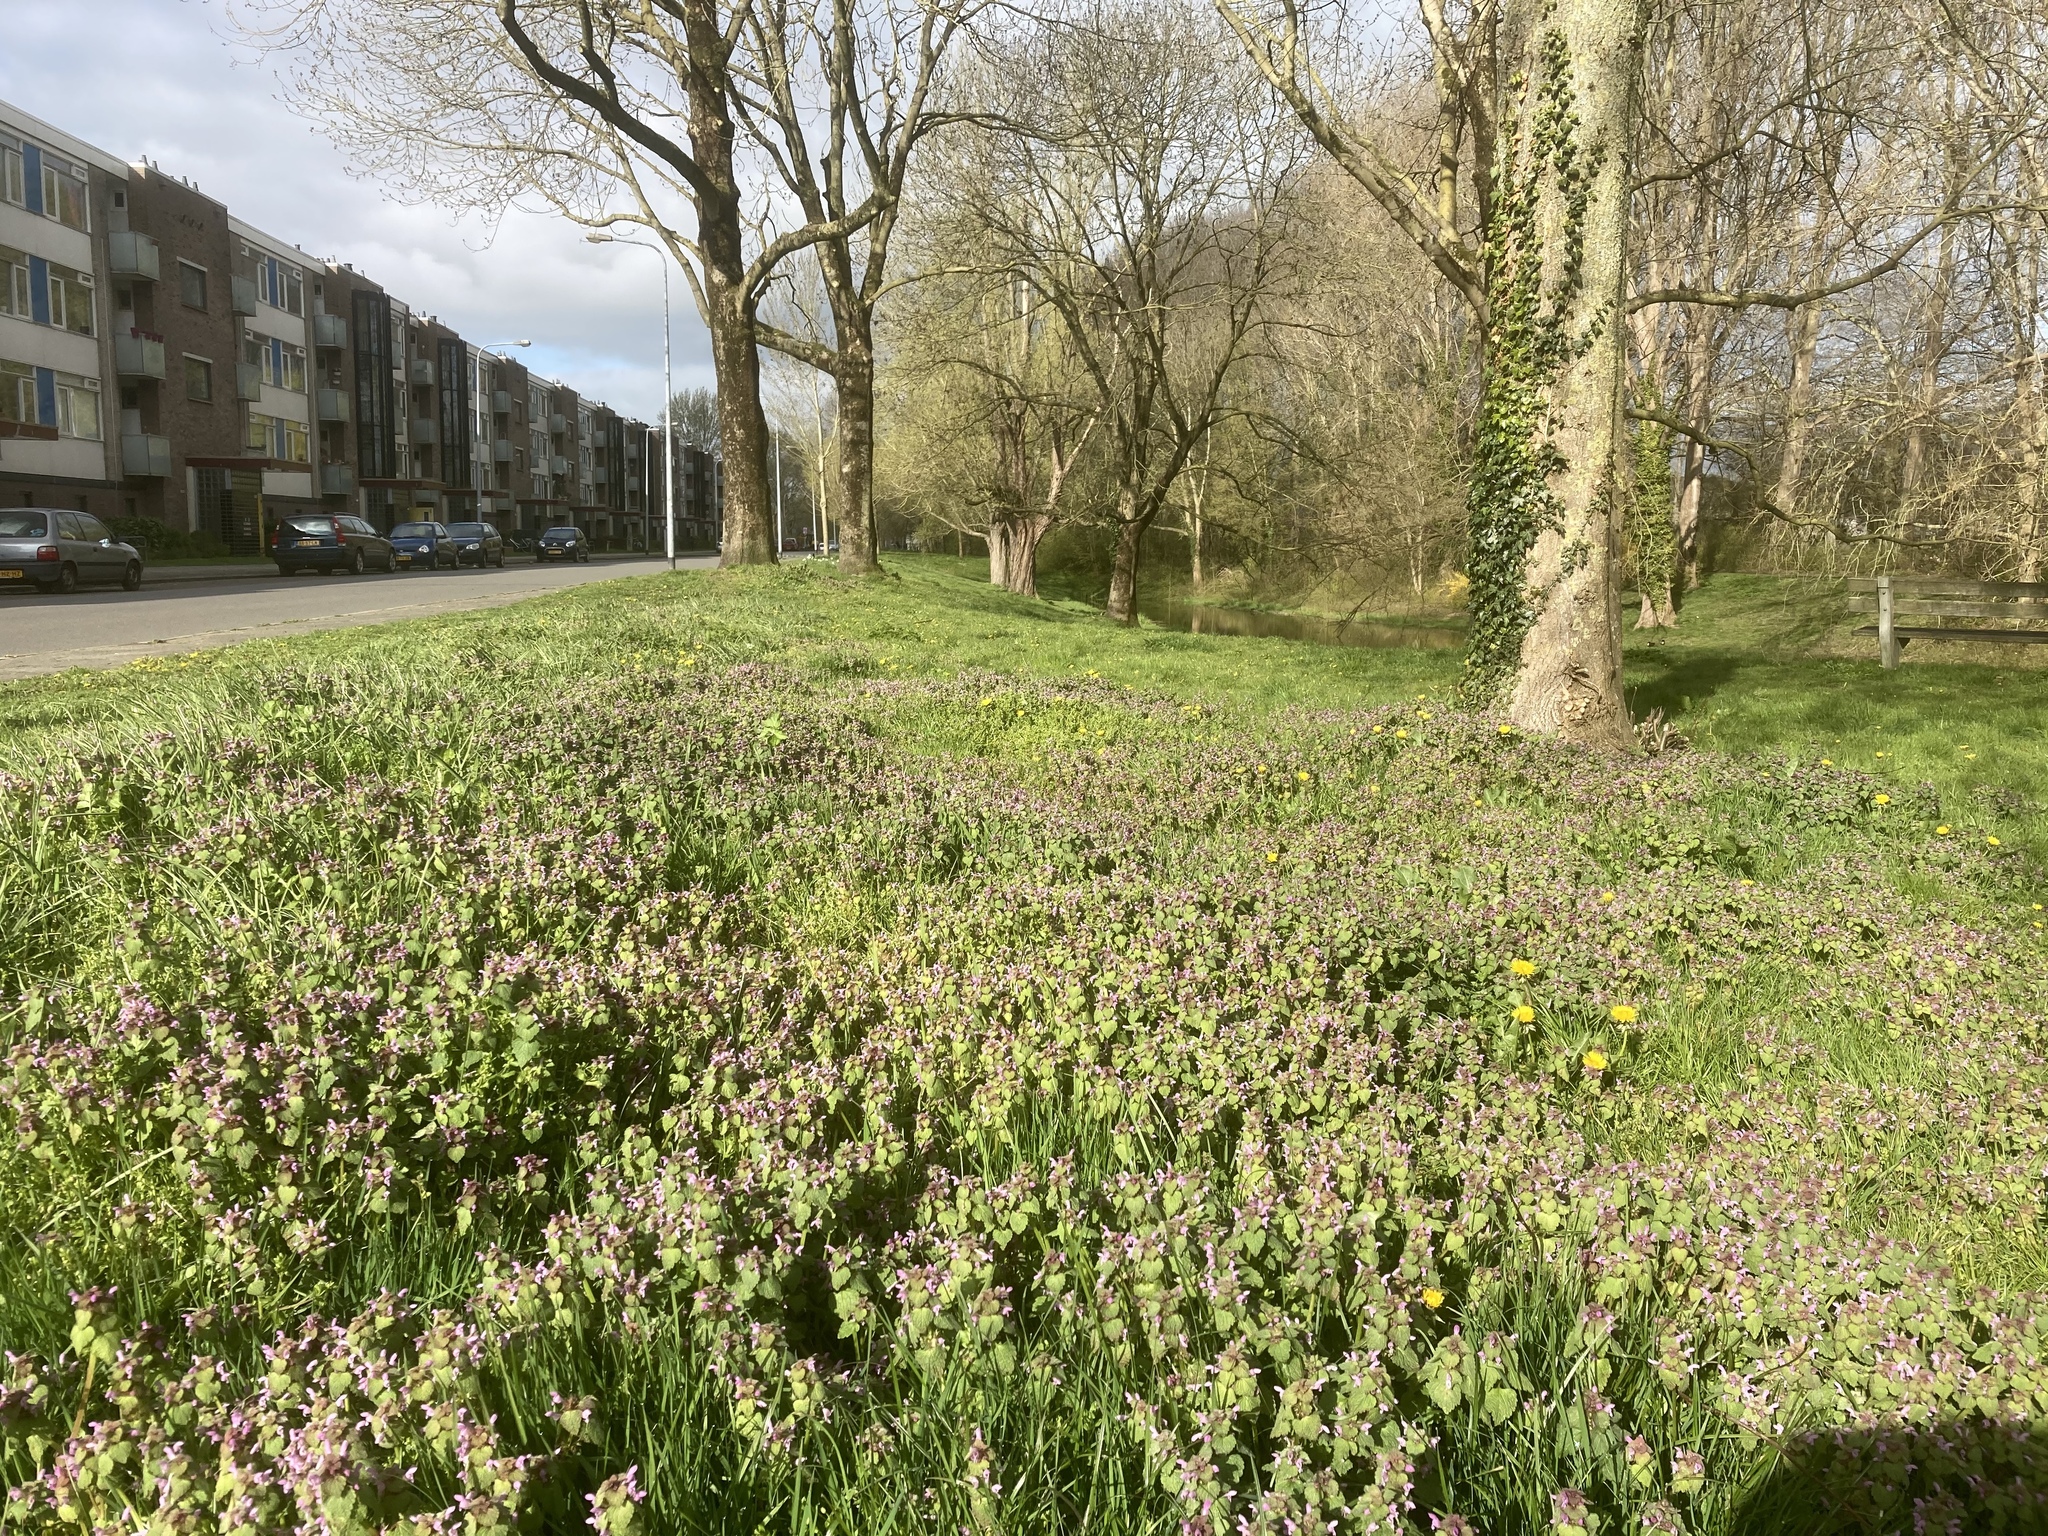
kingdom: Plantae
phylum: Tracheophyta
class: Magnoliopsida
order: Lamiales
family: Lamiaceae
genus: Lamium
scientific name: Lamium purpureum
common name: Red dead-nettle
